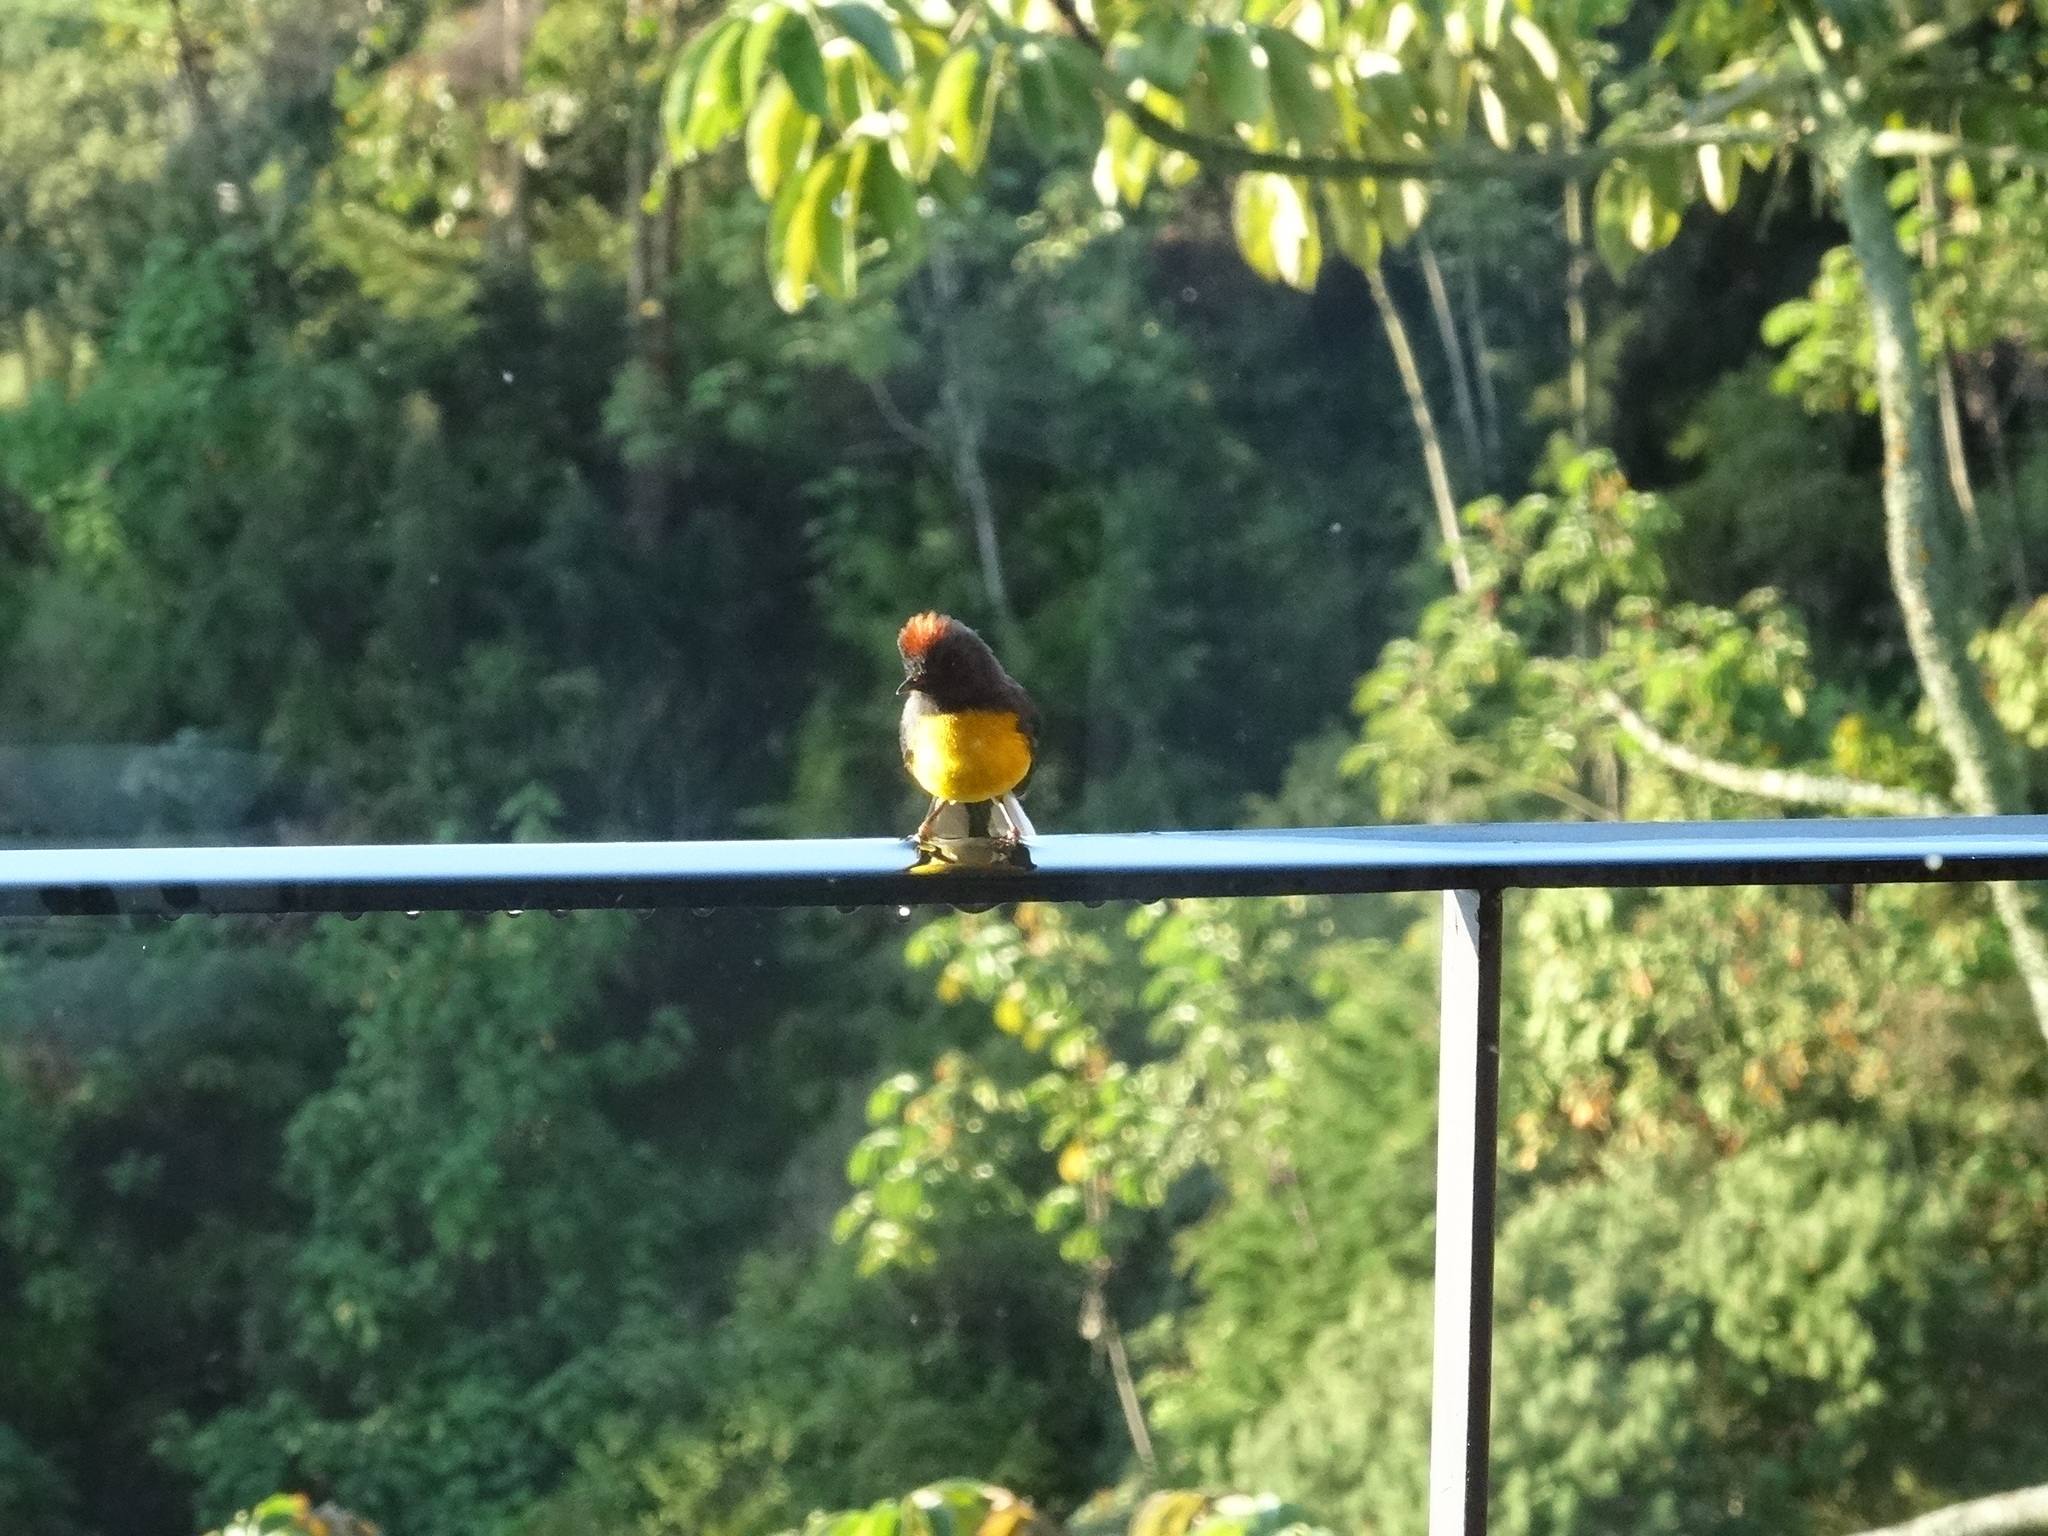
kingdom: Animalia
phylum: Chordata
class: Aves
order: Passeriformes
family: Parulidae
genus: Myioborus
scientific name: Myioborus miniatus
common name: Slate-throated redstart
